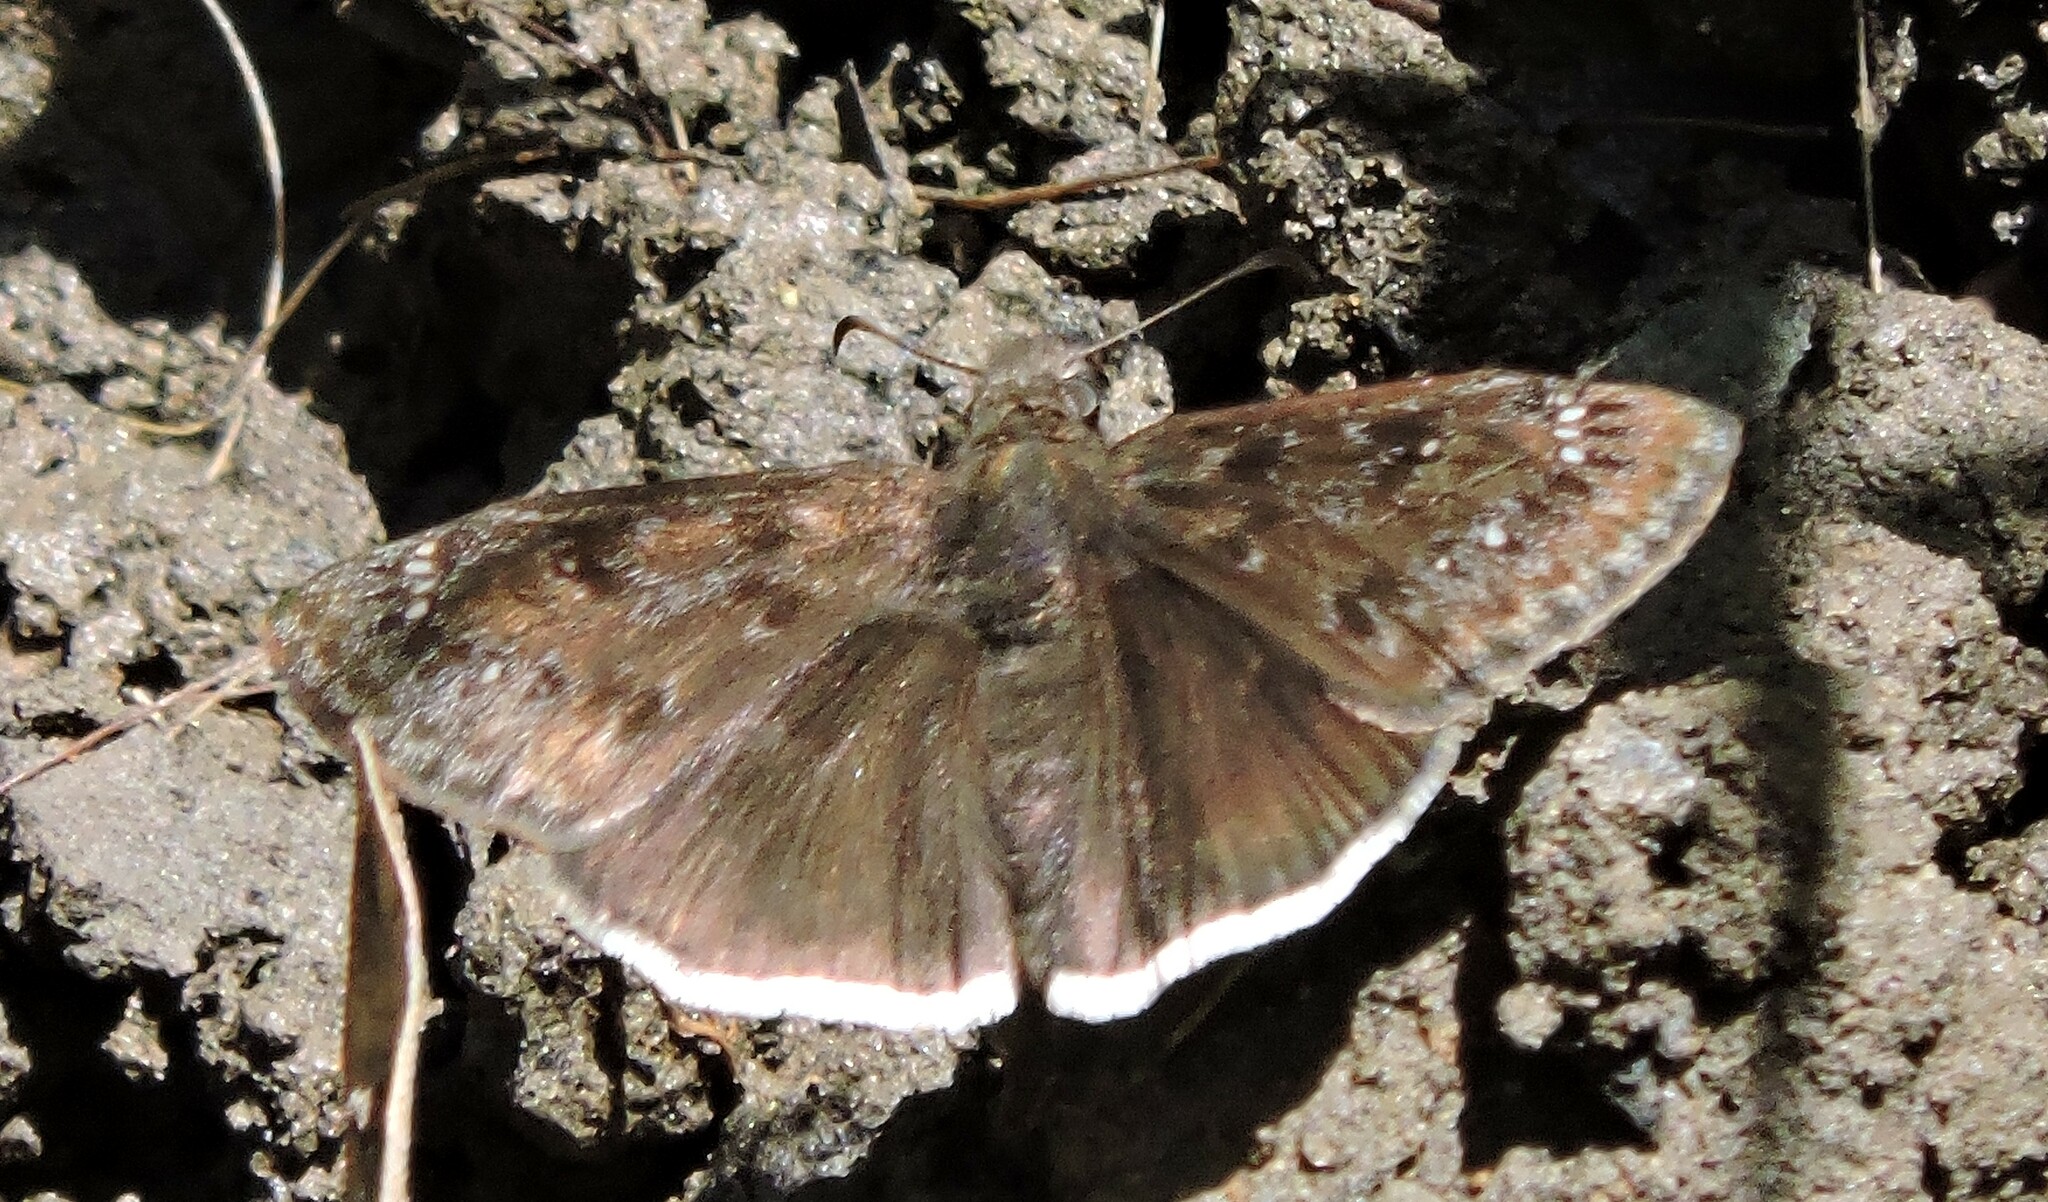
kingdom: Animalia
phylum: Arthropoda
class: Insecta
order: Lepidoptera
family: Hesperiidae
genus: Erynnis
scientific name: Erynnis tristis
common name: Mournful duskywing
